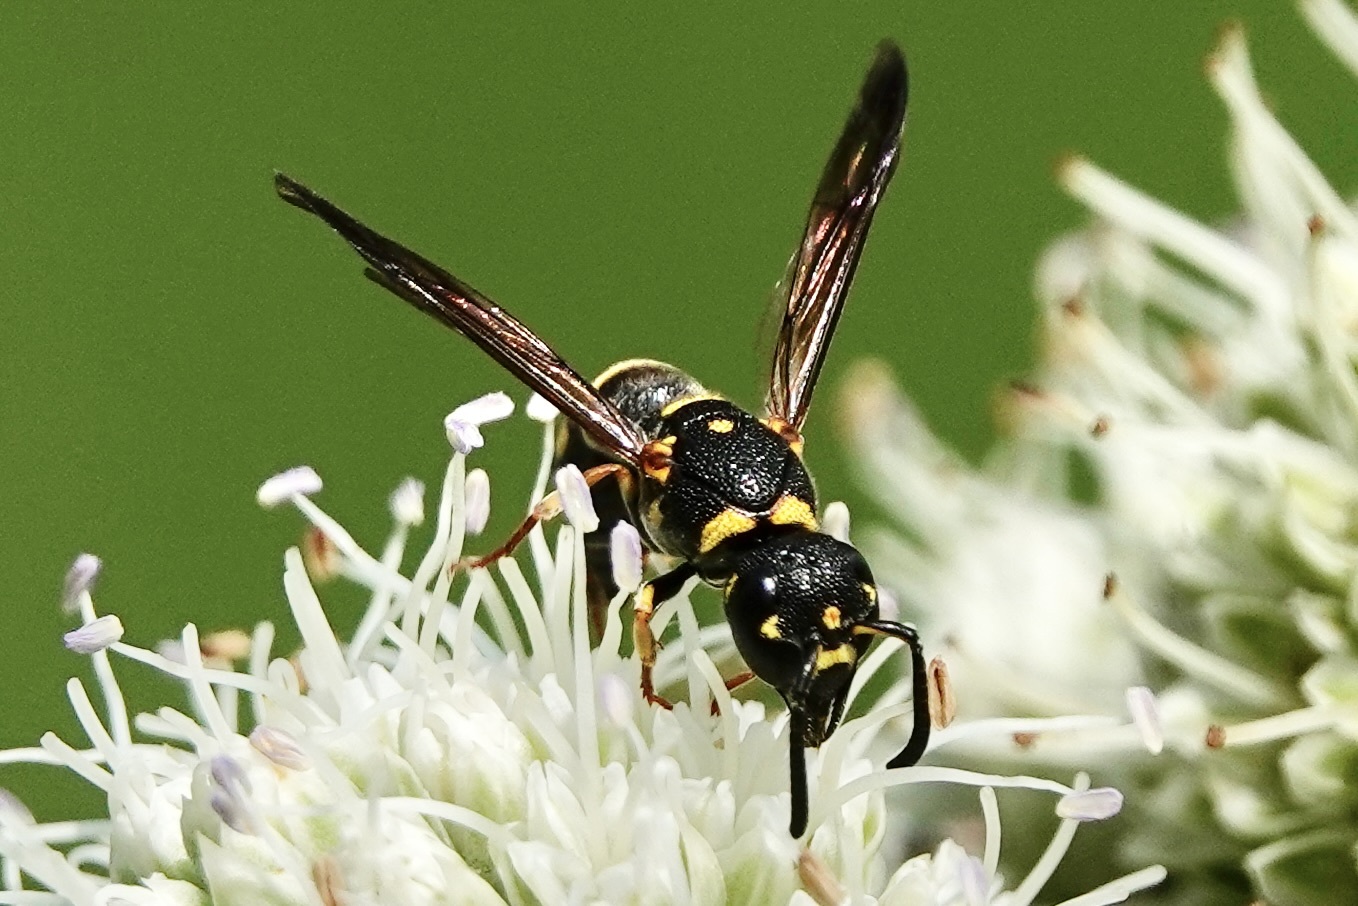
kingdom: Animalia
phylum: Arthropoda
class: Insecta
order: Hymenoptera
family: Eumenidae
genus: Parancistrocerus
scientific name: Parancistrocerus pedestris
